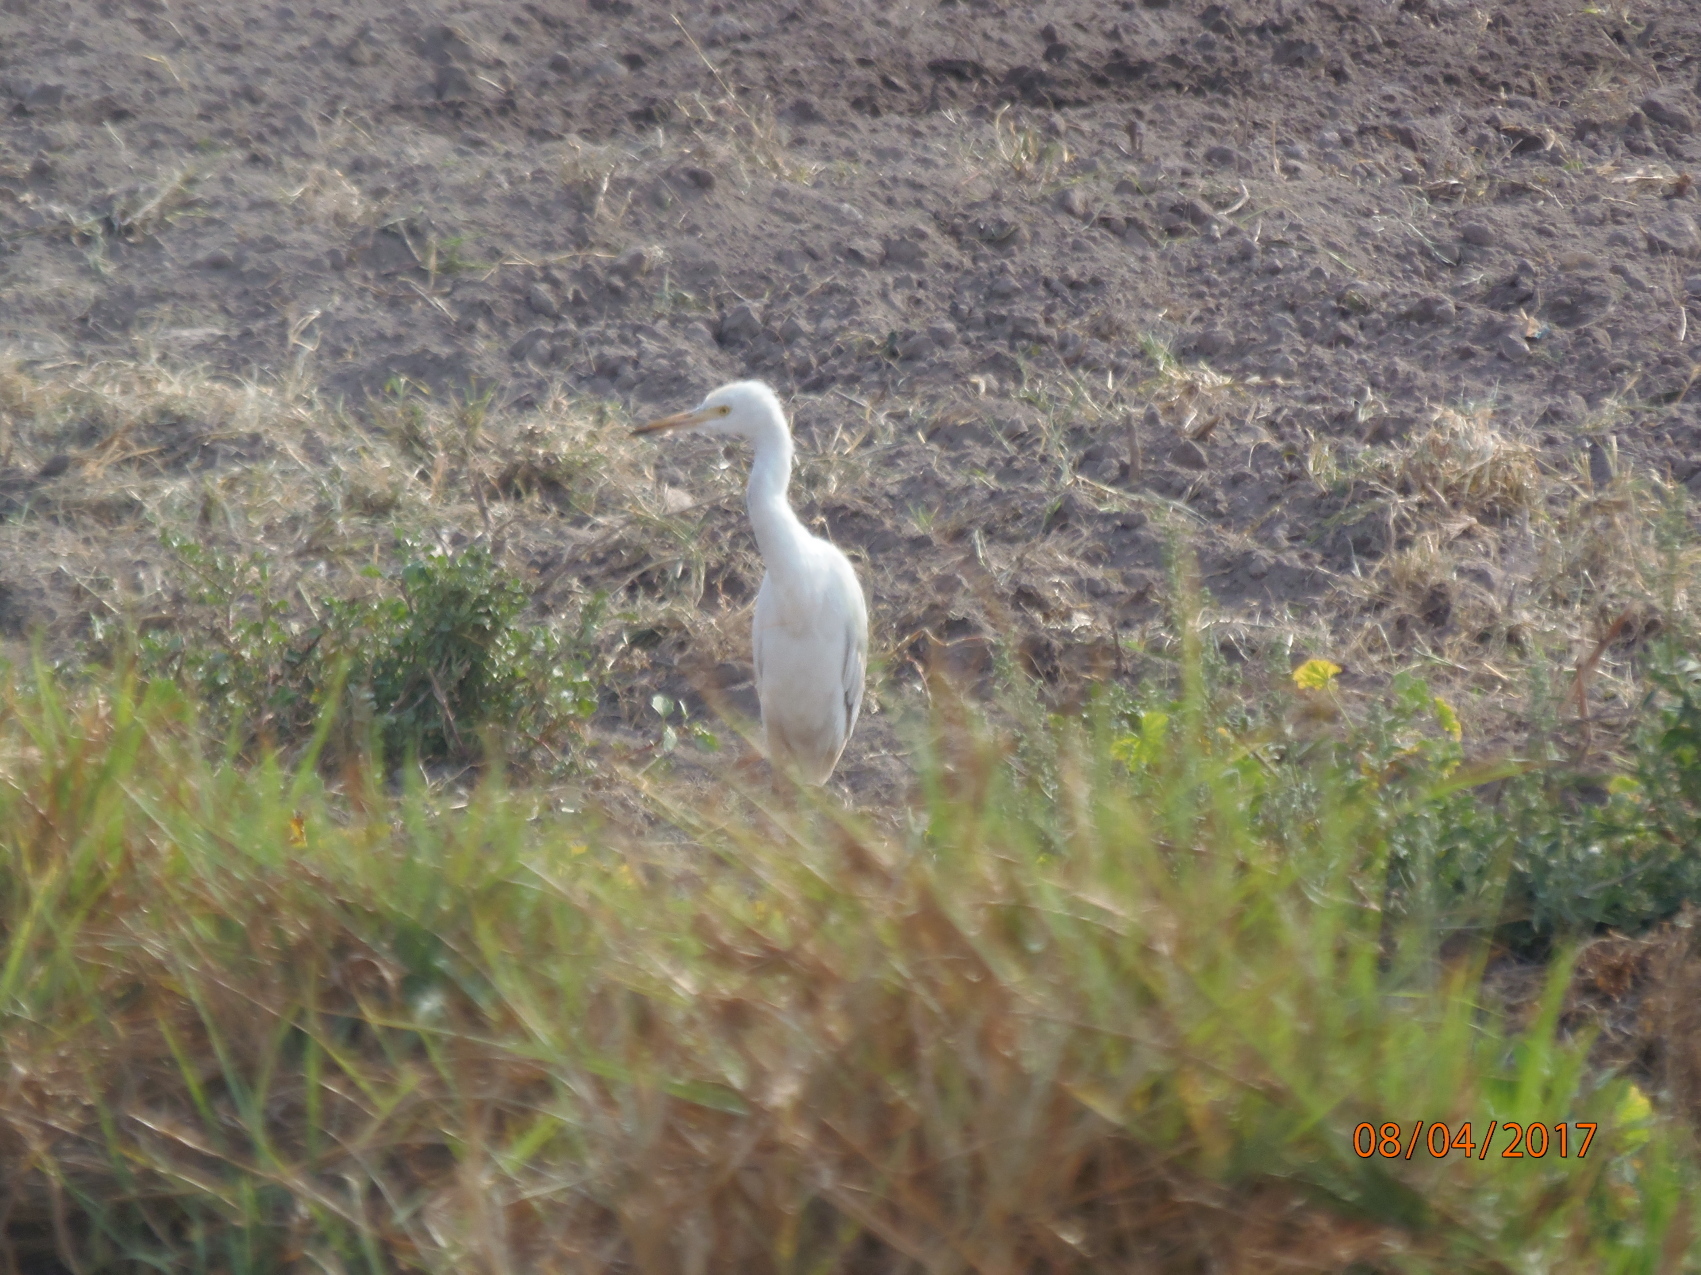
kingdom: Animalia
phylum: Chordata
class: Aves
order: Pelecaniformes
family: Ardeidae
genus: Bubulcus
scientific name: Bubulcus ibis
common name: Cattle egret
